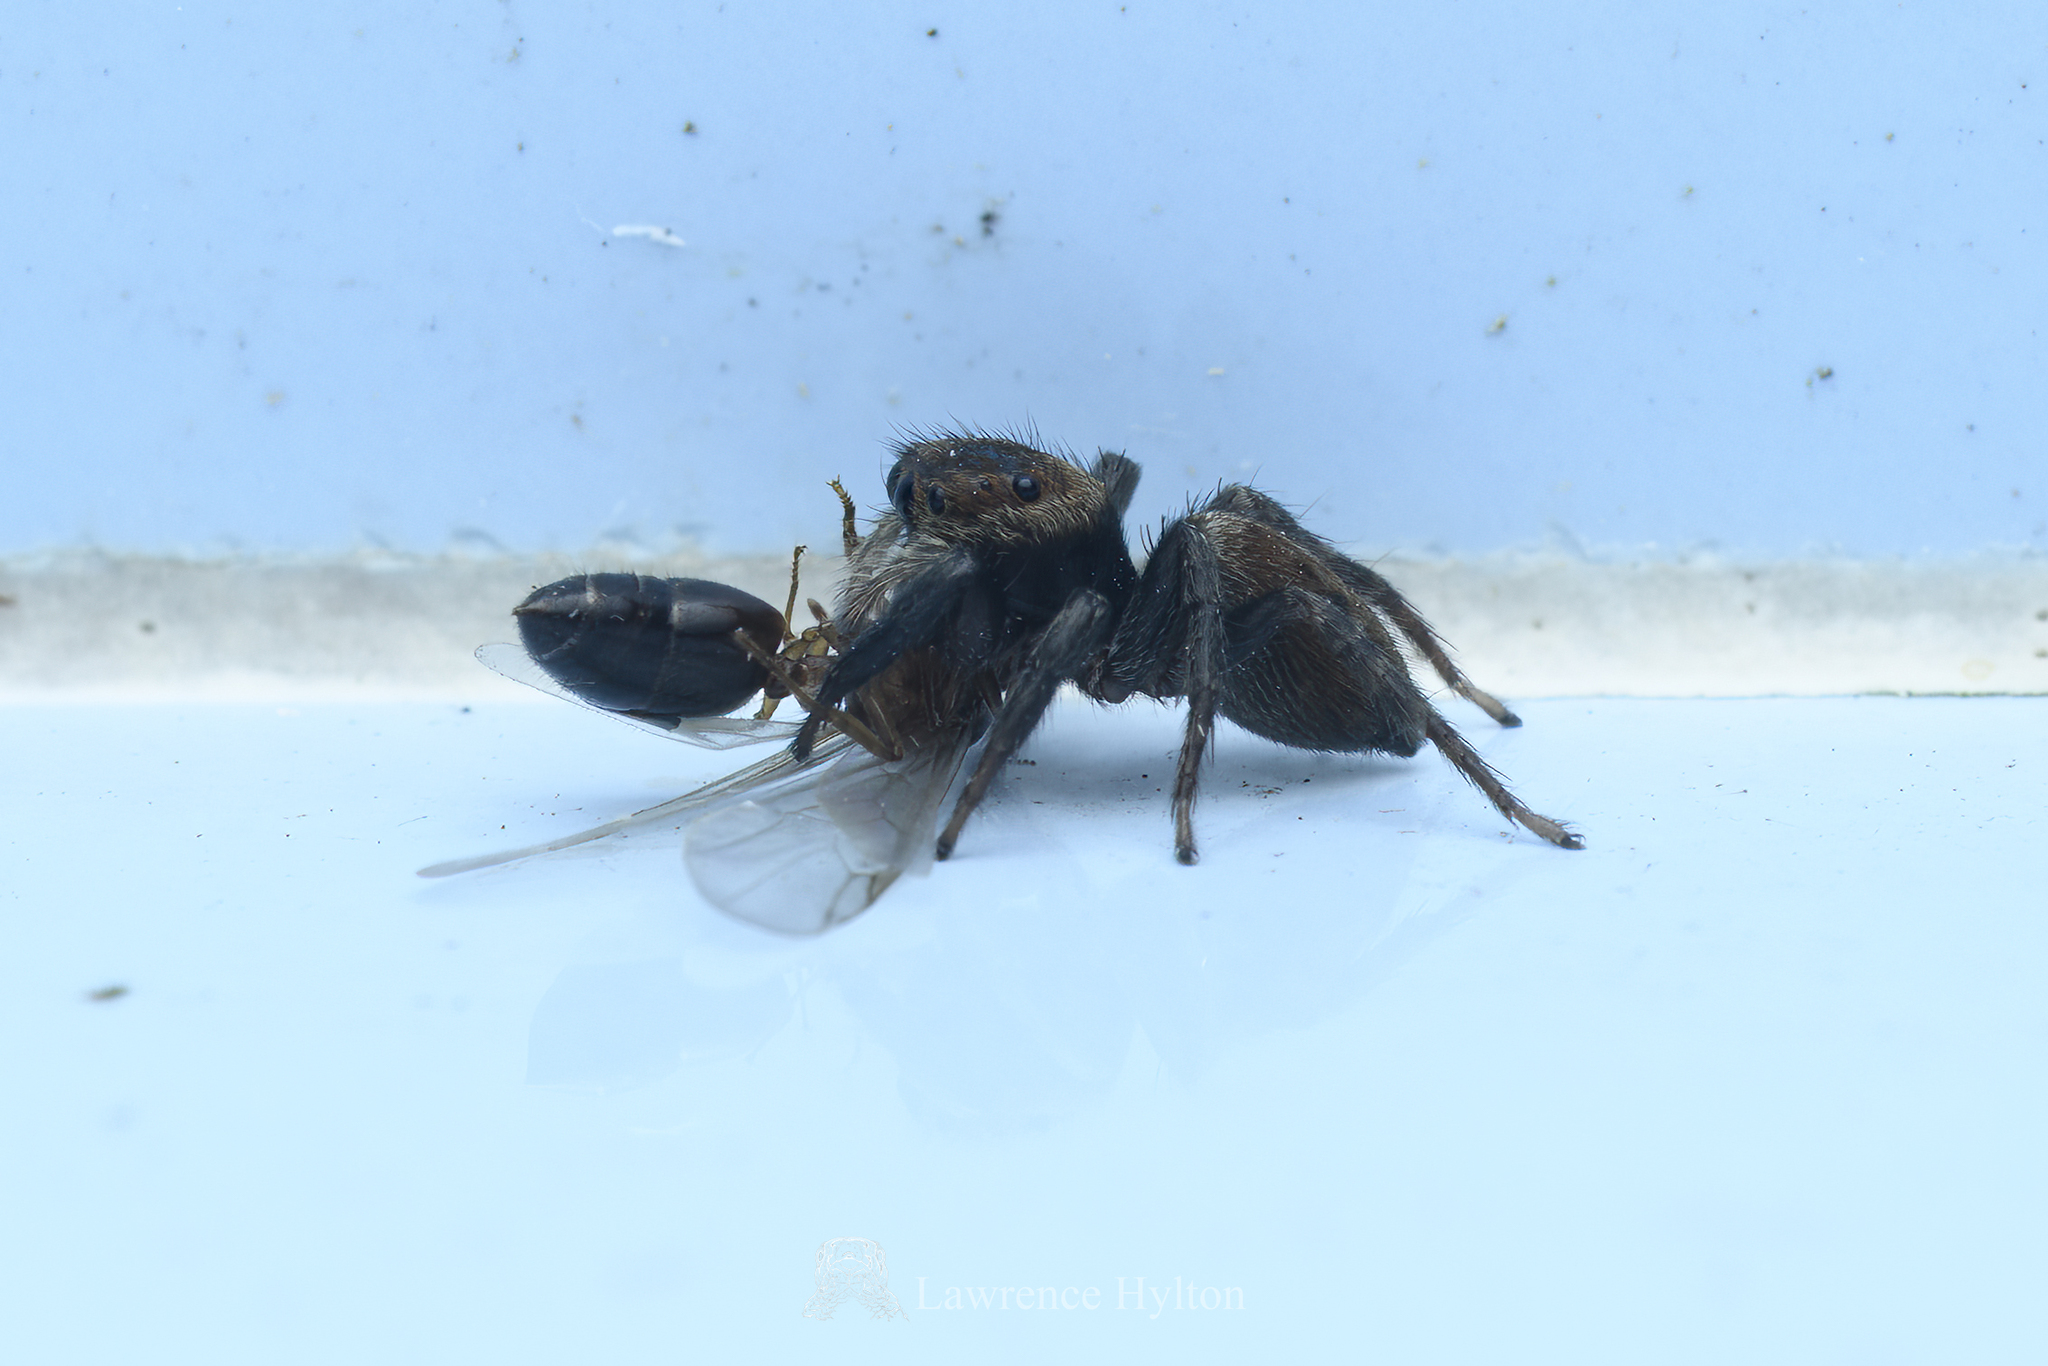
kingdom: Animalia
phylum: Arthropoda
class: Arachnida
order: Araneae
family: Salticidae
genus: Hasarius
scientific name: Hasarius adansoni
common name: Jumping spider
